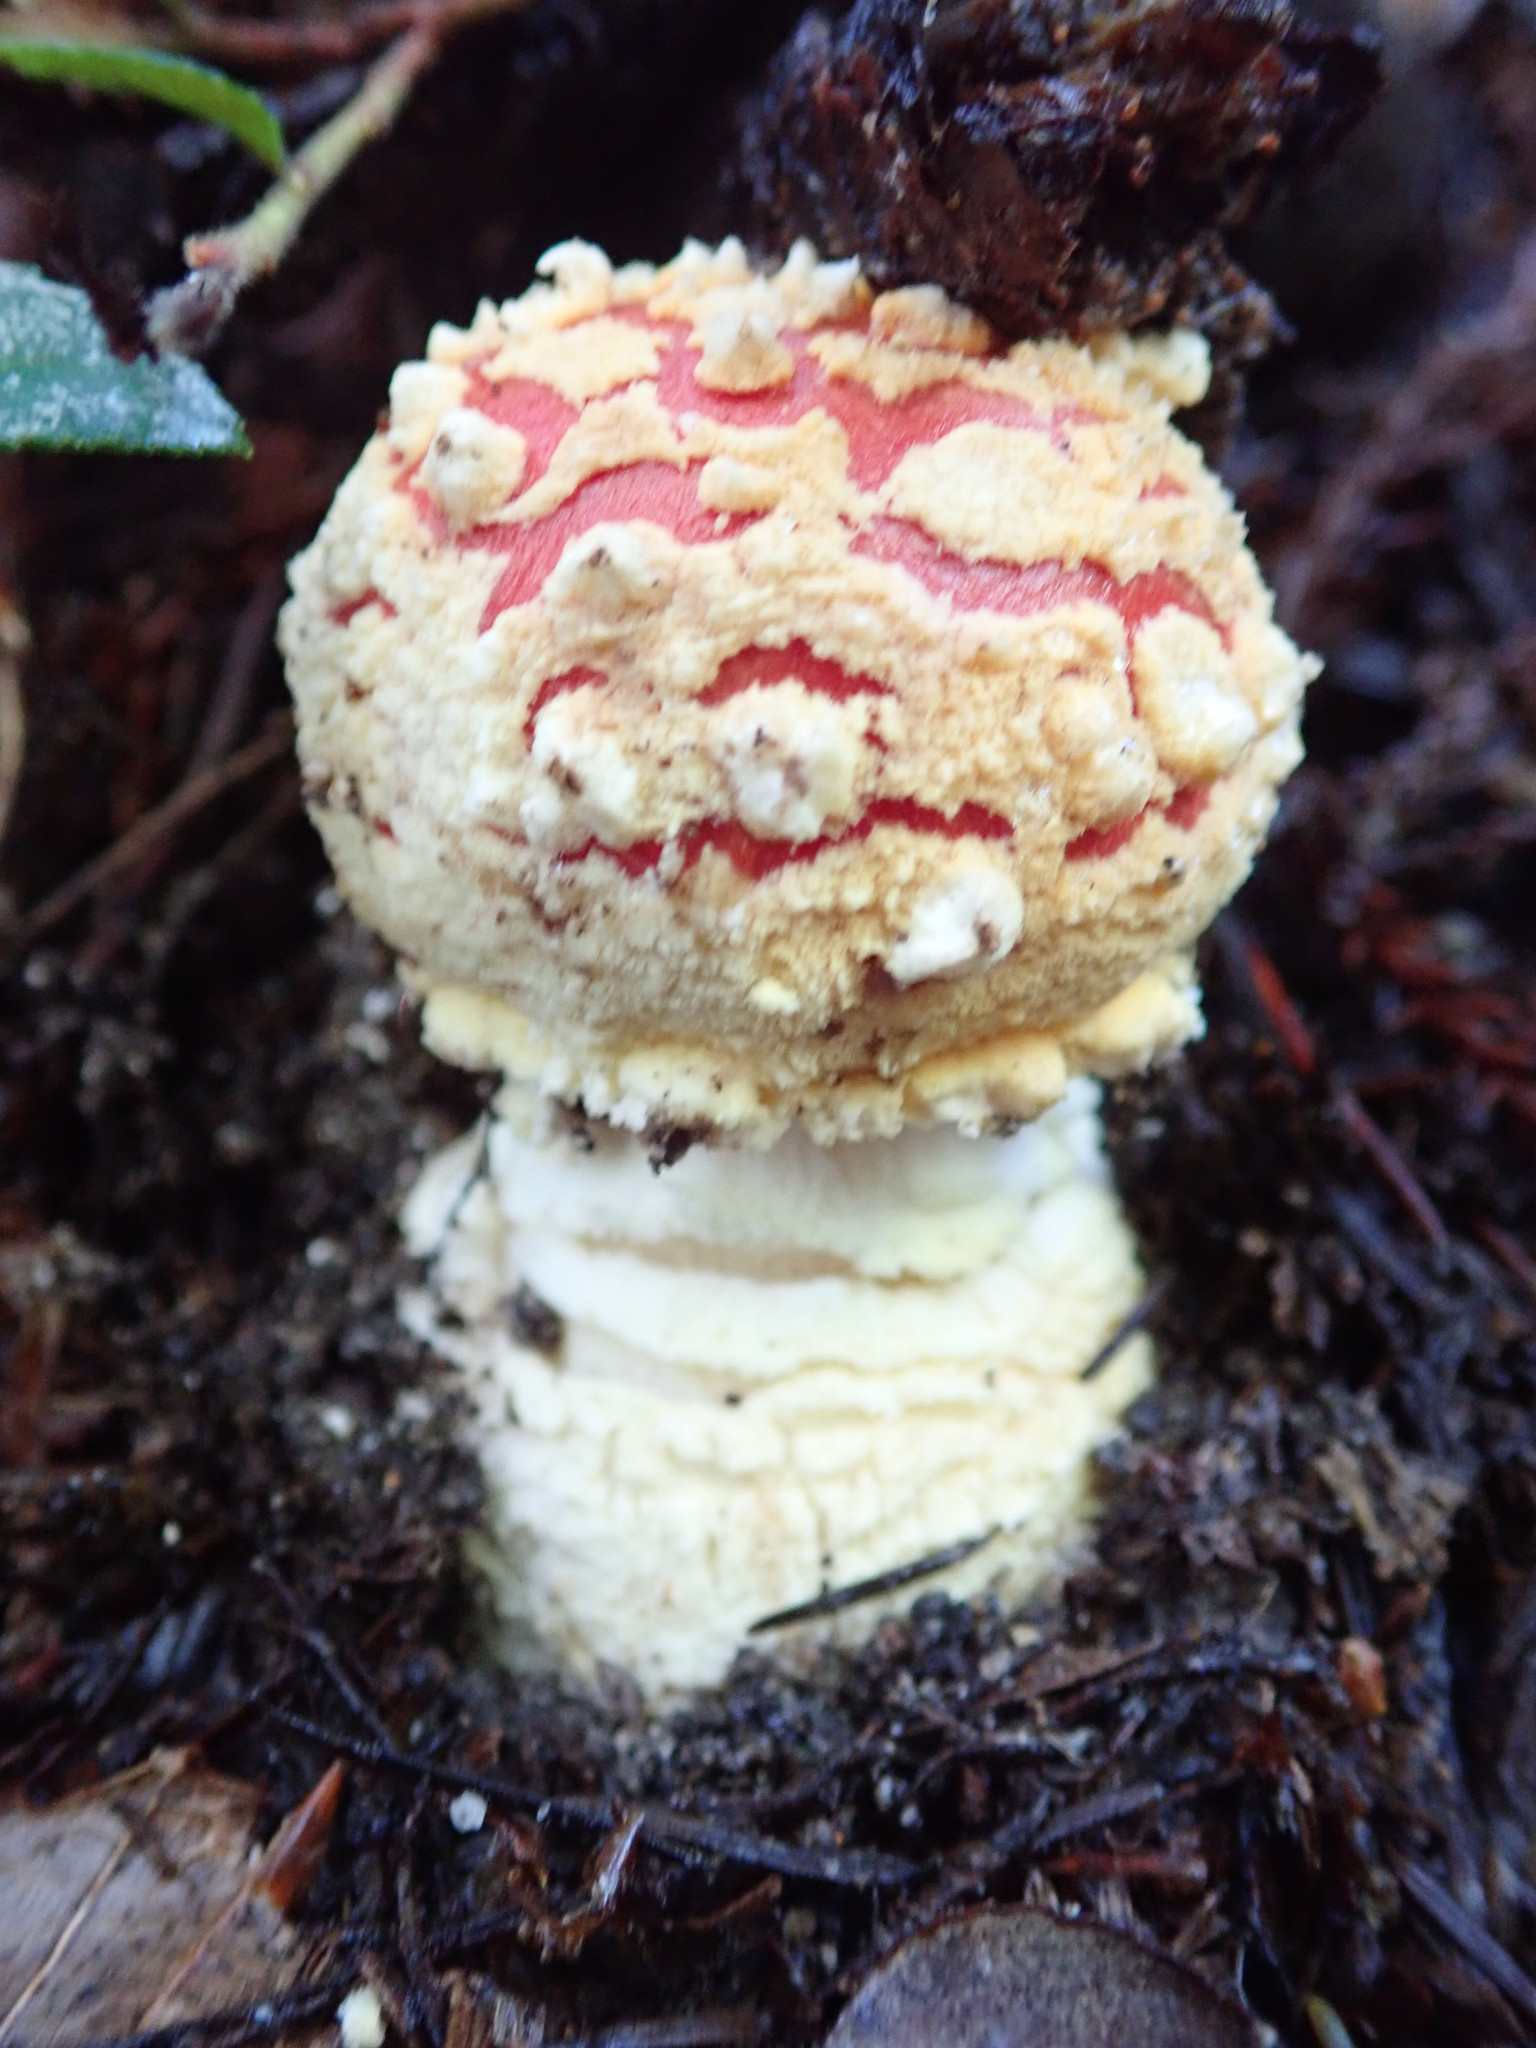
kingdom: Fungi
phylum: Basidiomycota
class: Agaricomycetes
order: Agaricales
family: Amanitaceae
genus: Amanita
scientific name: Amanita muscaria
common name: Fly agaric
